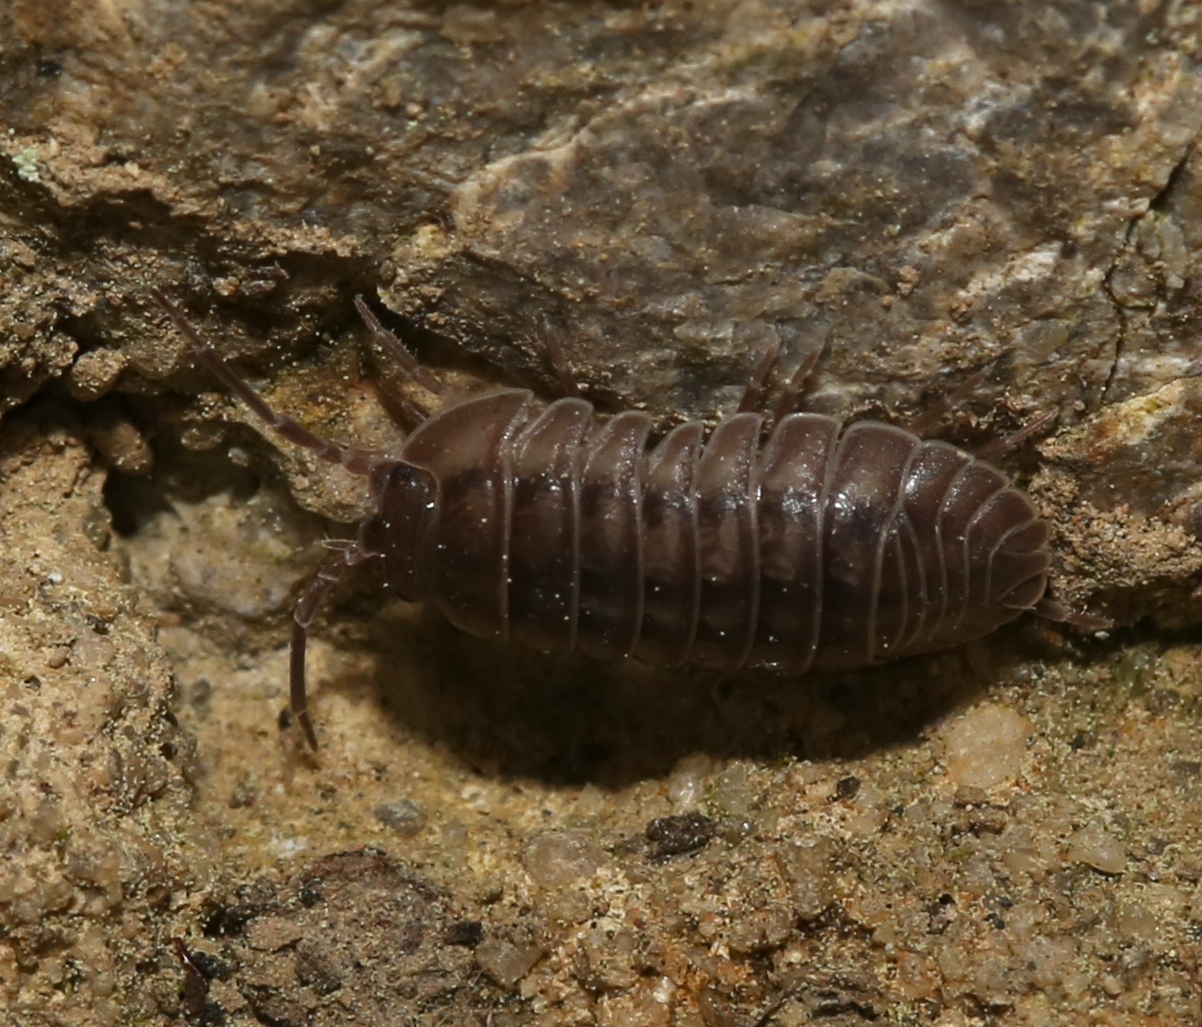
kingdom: Animalia
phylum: Arthropoda
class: Malacostraca
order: Isopoda
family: Armadillidiidae
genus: Armadillidium
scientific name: Armadillidium nasatum
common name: Isopod
